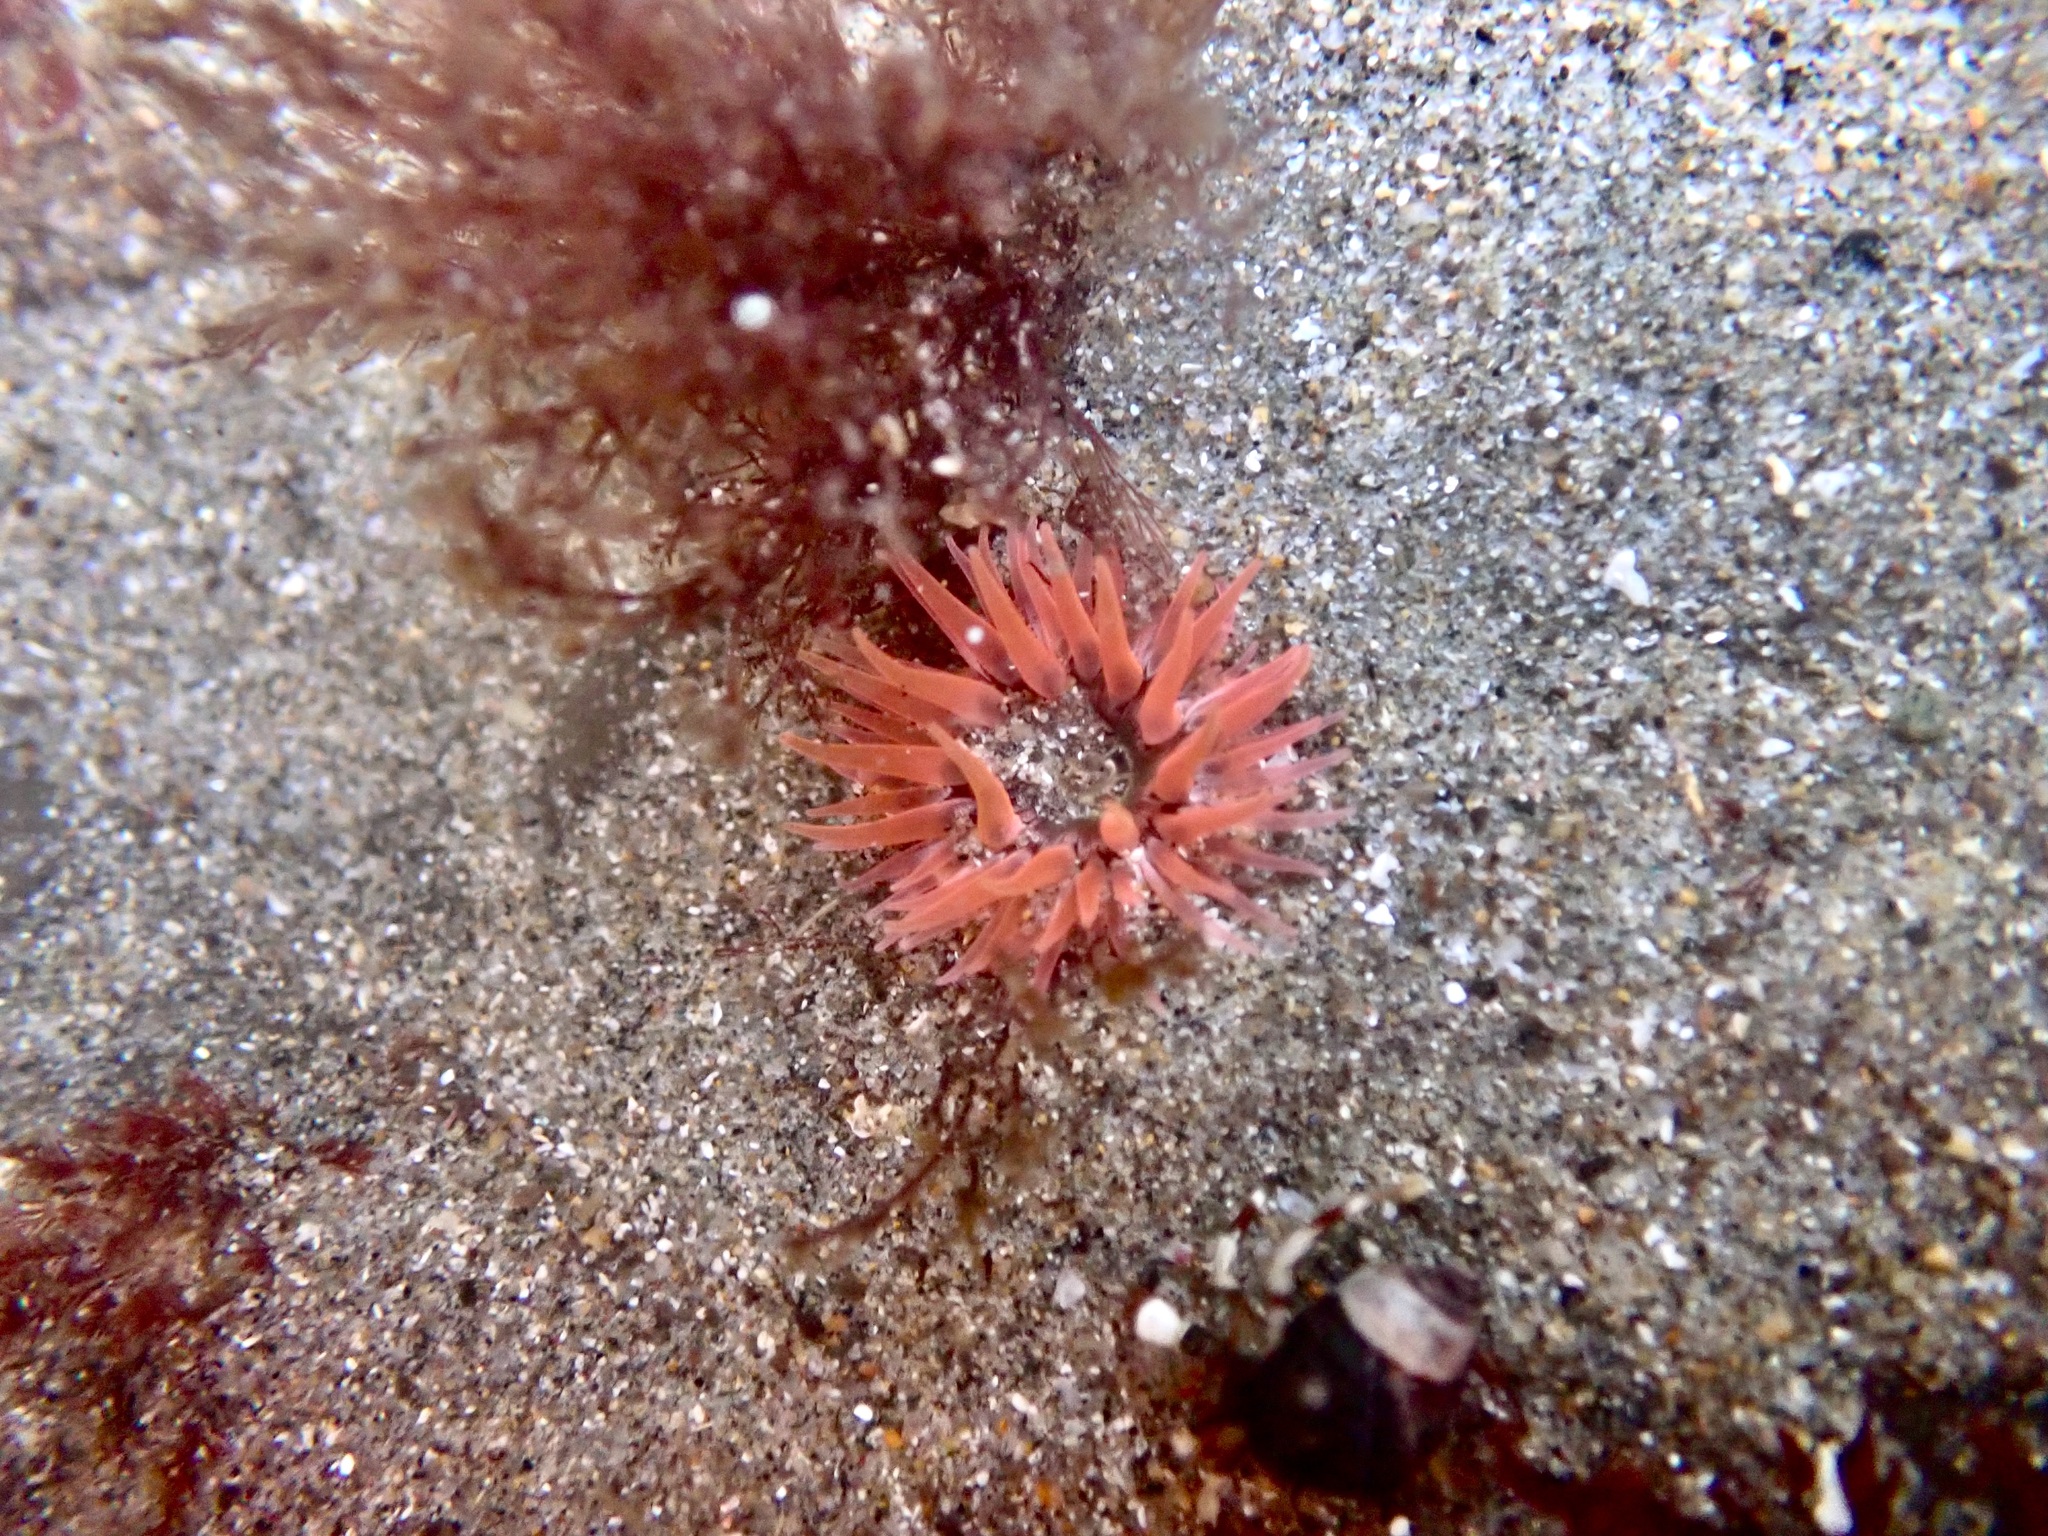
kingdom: Animalia
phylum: Cnidaria
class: Anthozoa
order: Actiniaria
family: Actiniidae
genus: Anthopleura
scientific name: Anthopleura artemisia
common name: Buried sea anemone
